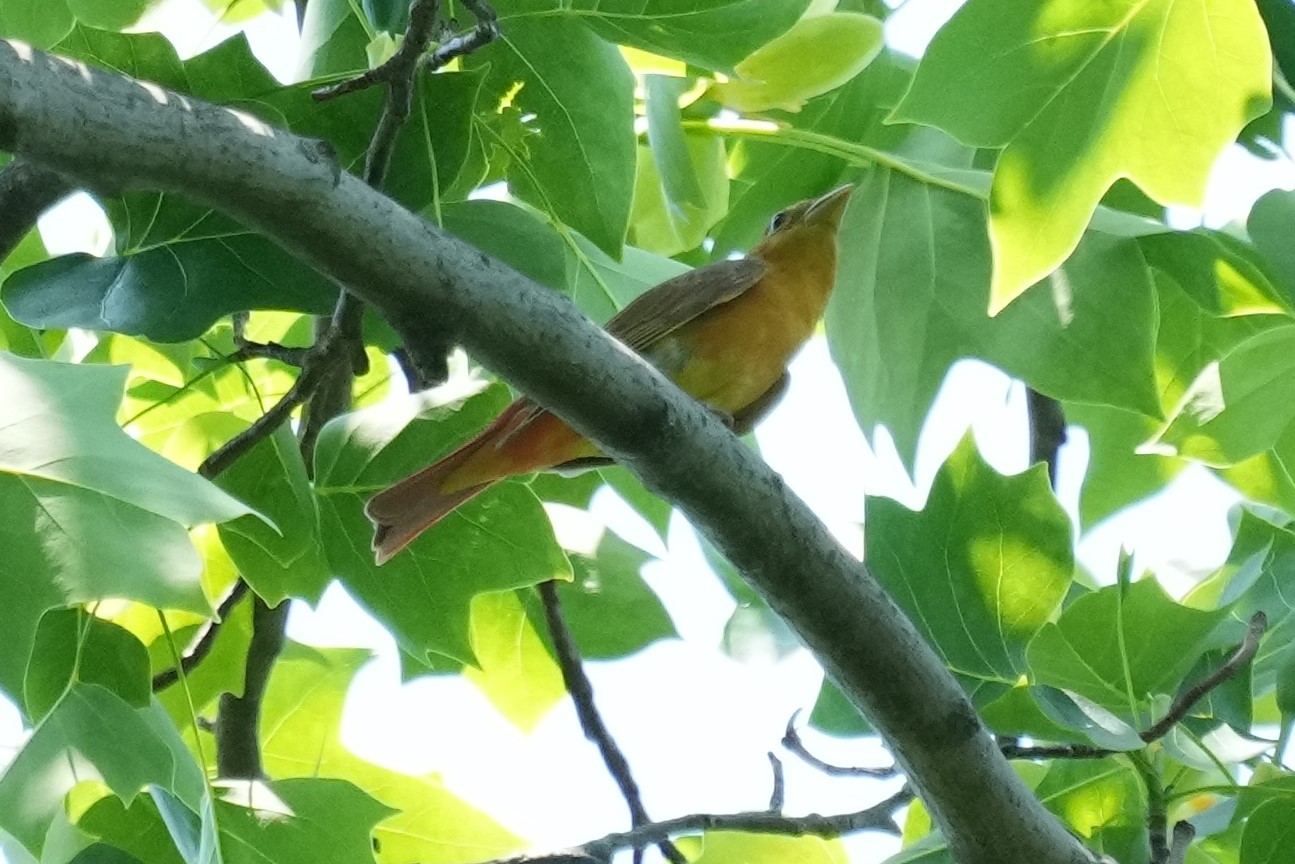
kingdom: Animalia
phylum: Chordata
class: Aves
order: Passeriformes
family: Cardinalidae
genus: Piranga
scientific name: Piranga rubra
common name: Summer tanager
